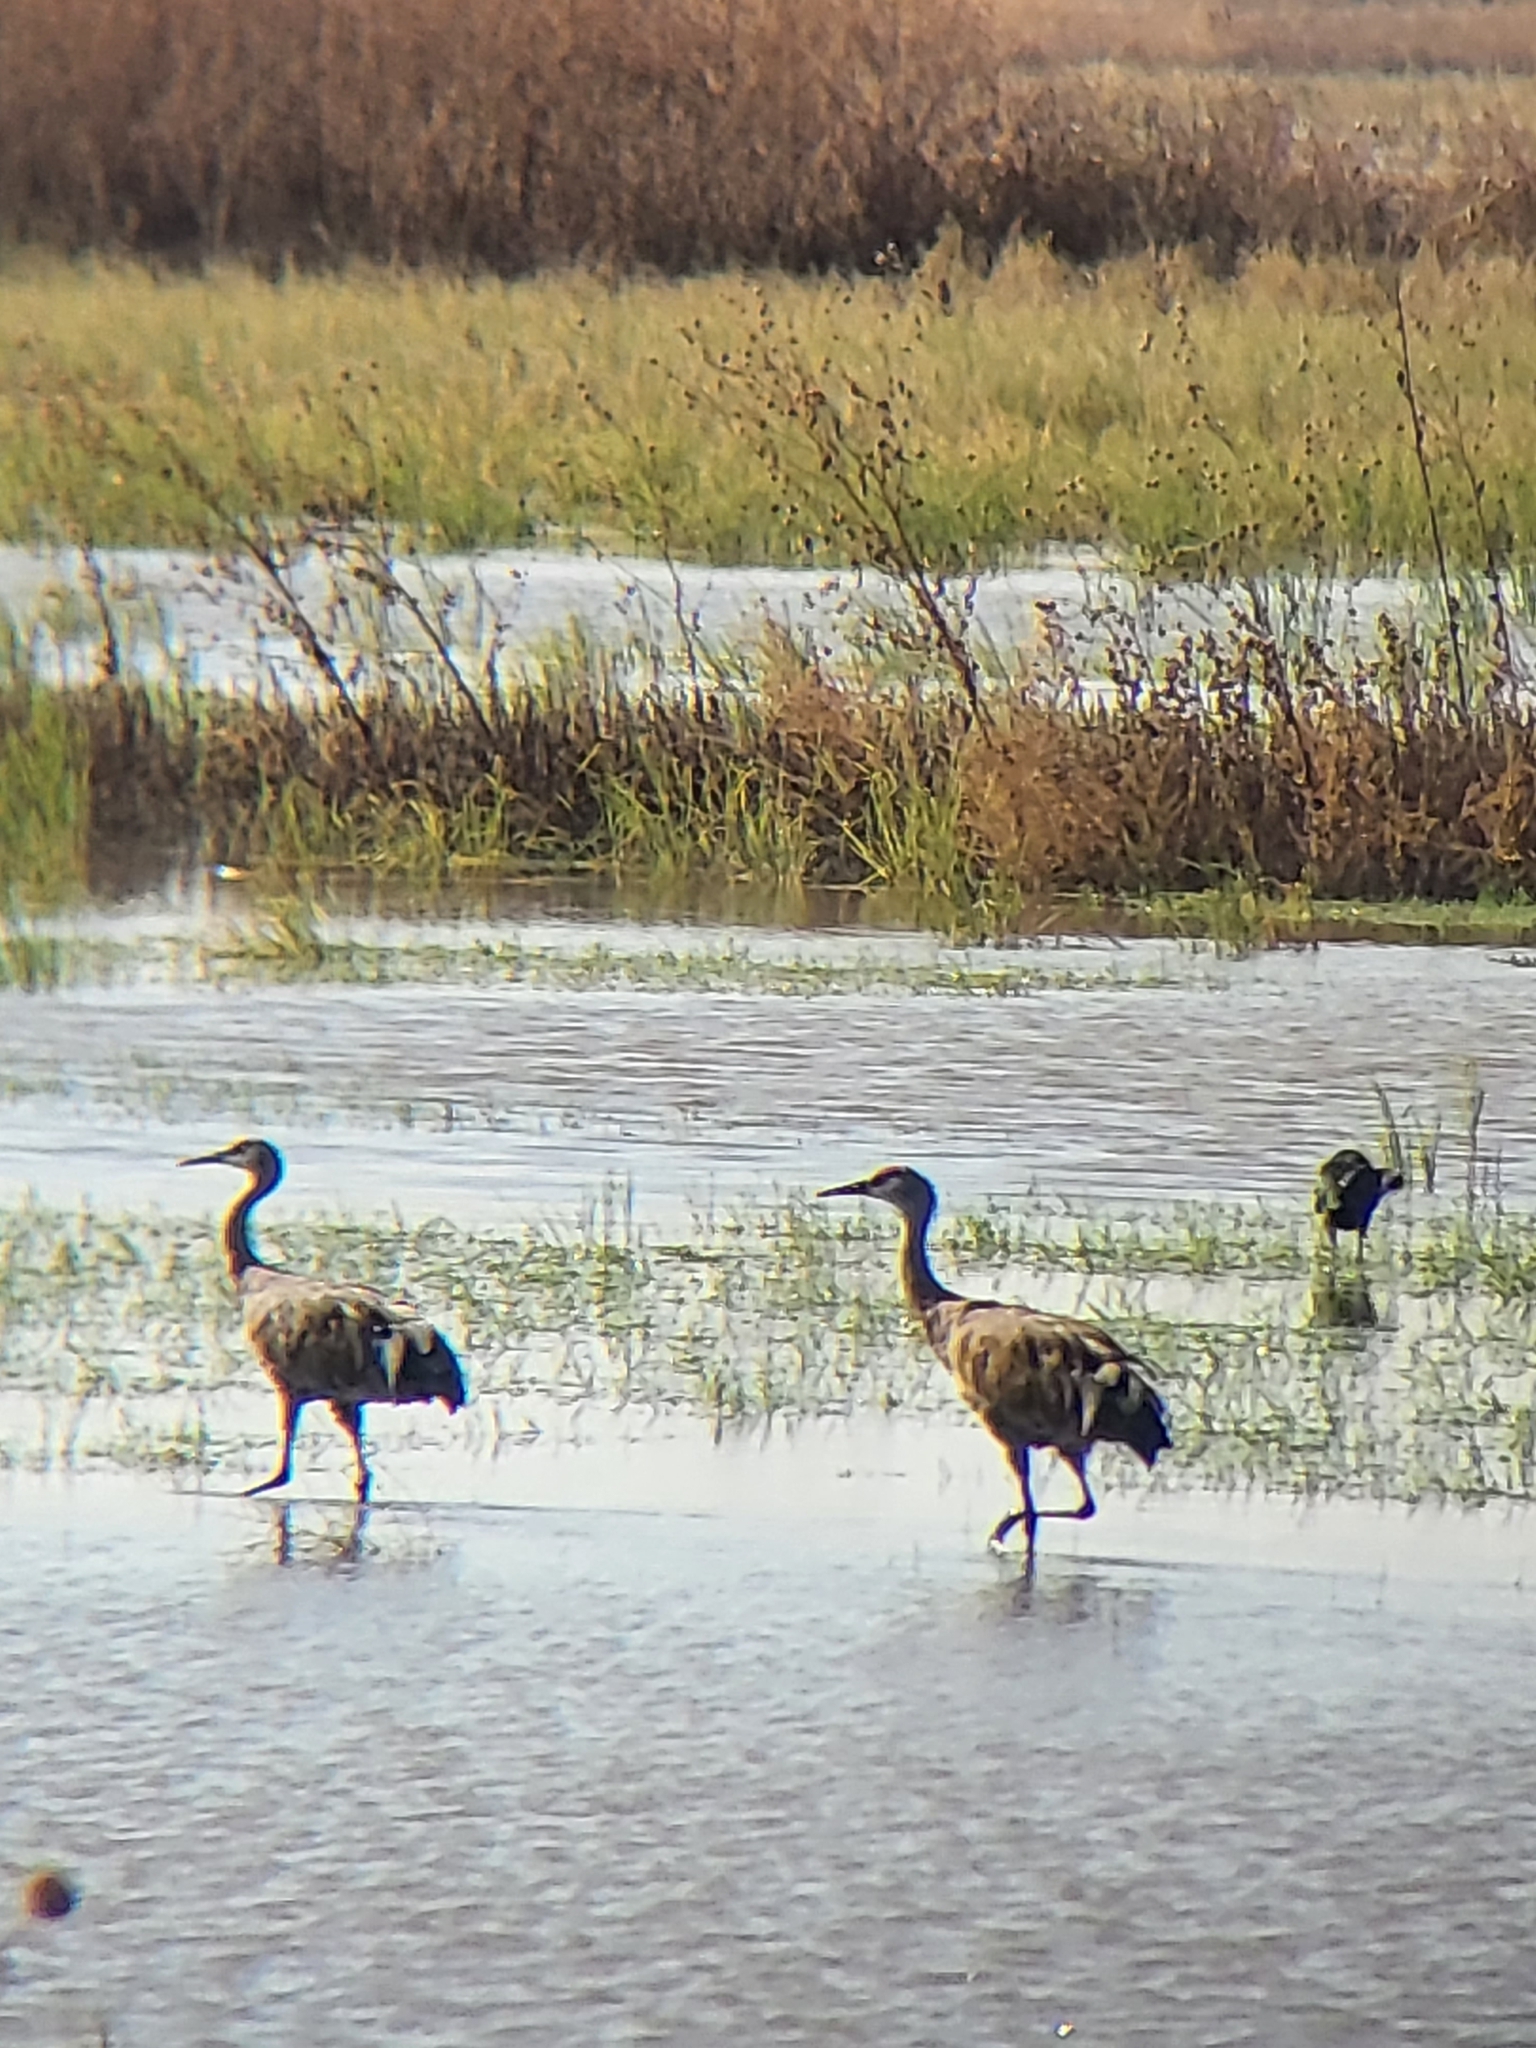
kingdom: Animalia
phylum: Chordata
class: Aves
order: Gruiformes
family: Gruidae
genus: Grus
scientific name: Grus canadensis
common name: Sandhill crane
